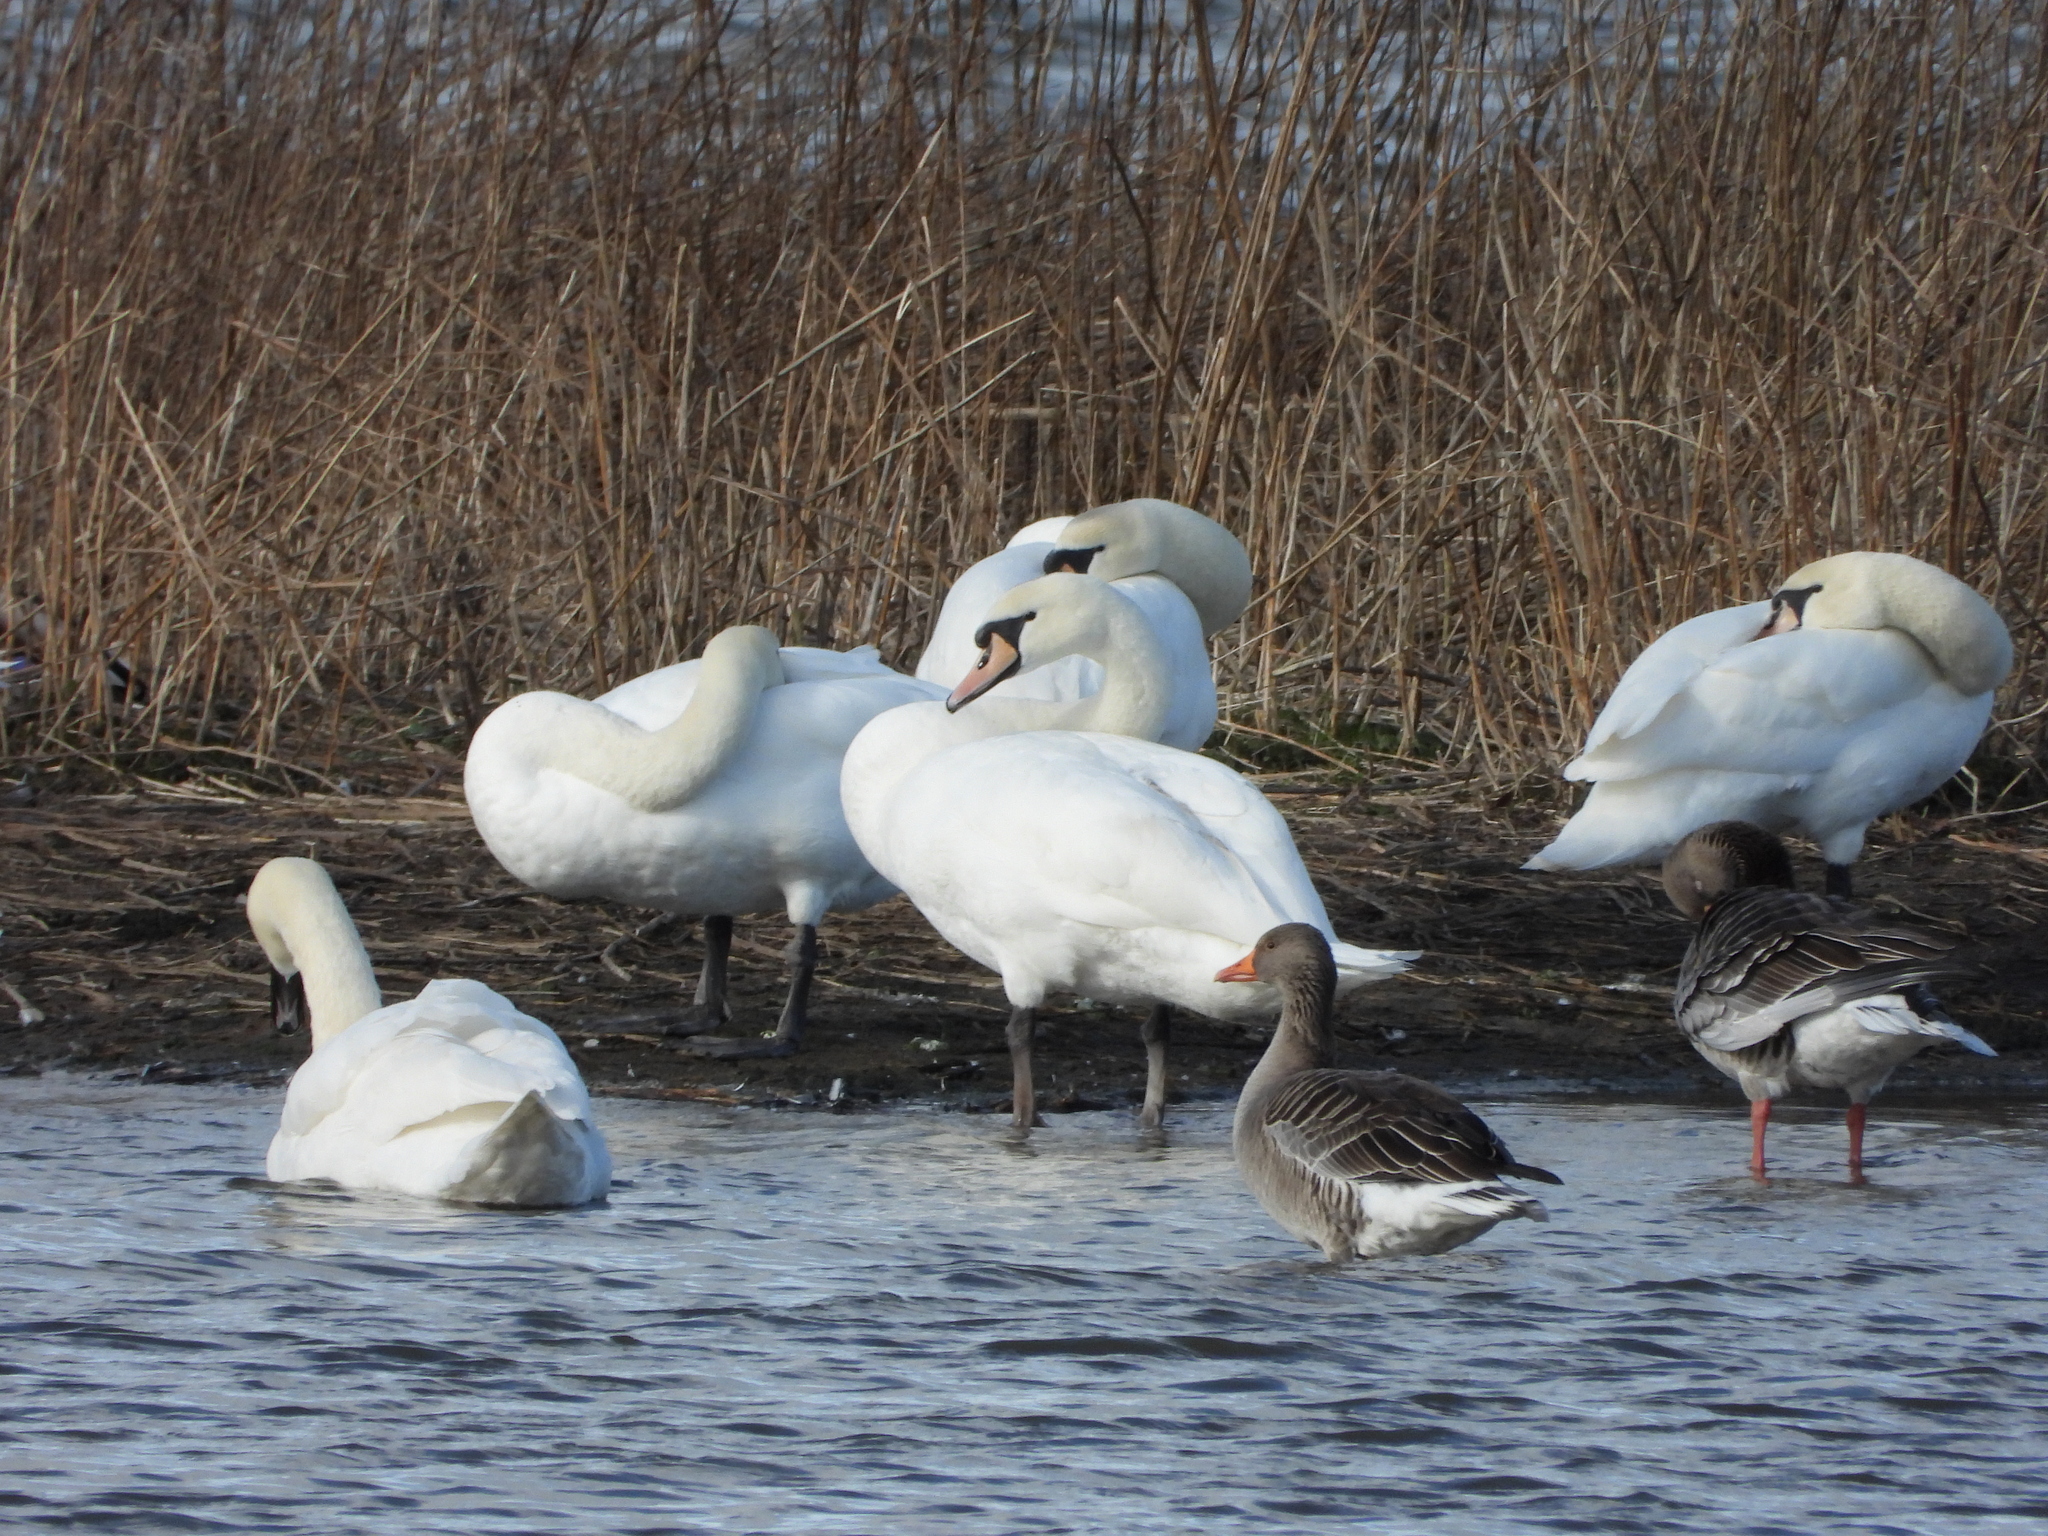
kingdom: Animalia
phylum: Chordata
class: Aves
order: Anseriformes
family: Anatidae
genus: Cygnus
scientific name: Cygnus olor
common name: Mute swan
